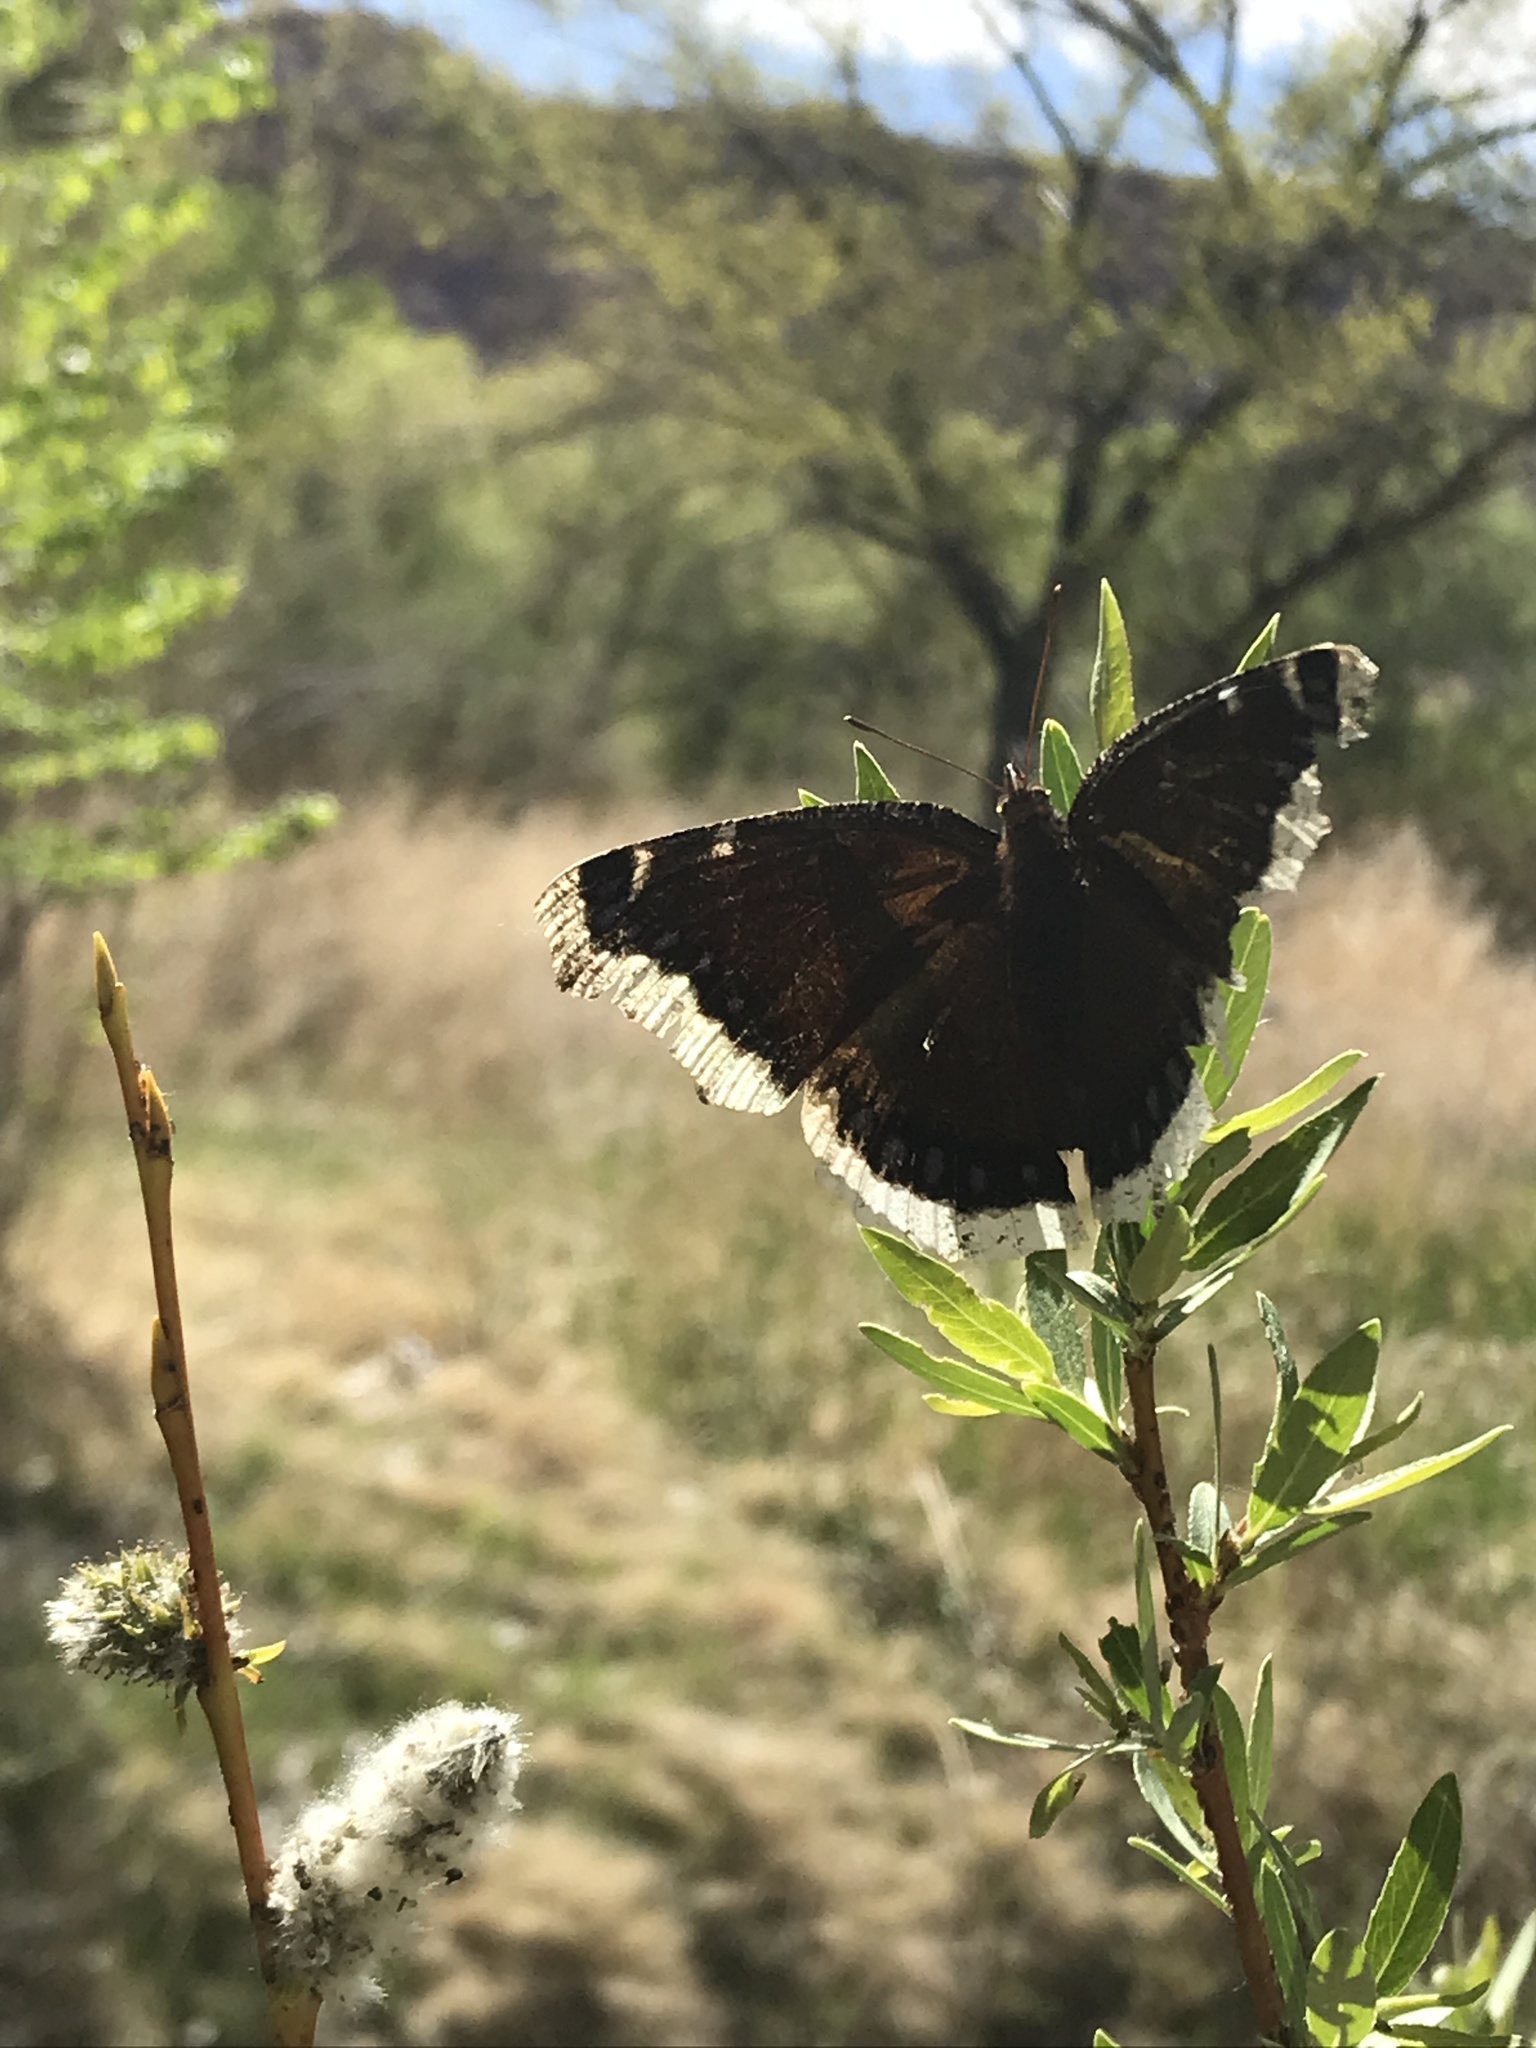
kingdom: Animalia
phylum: Arthropoda
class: Insecta
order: Lepidoptera
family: Nymphalidae
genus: Nymphalis
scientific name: Nymphalis antiopa
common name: Camberwell beauty
